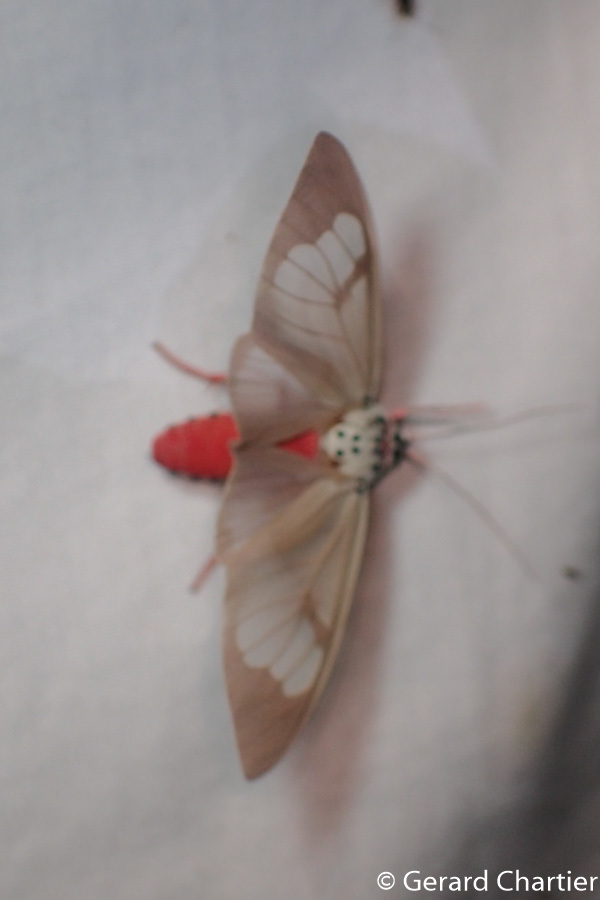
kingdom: Animalia
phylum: Arthropoda
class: Insecta
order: Lepidoptera
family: Erebidae
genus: Amerila
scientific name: Amerila astreus
